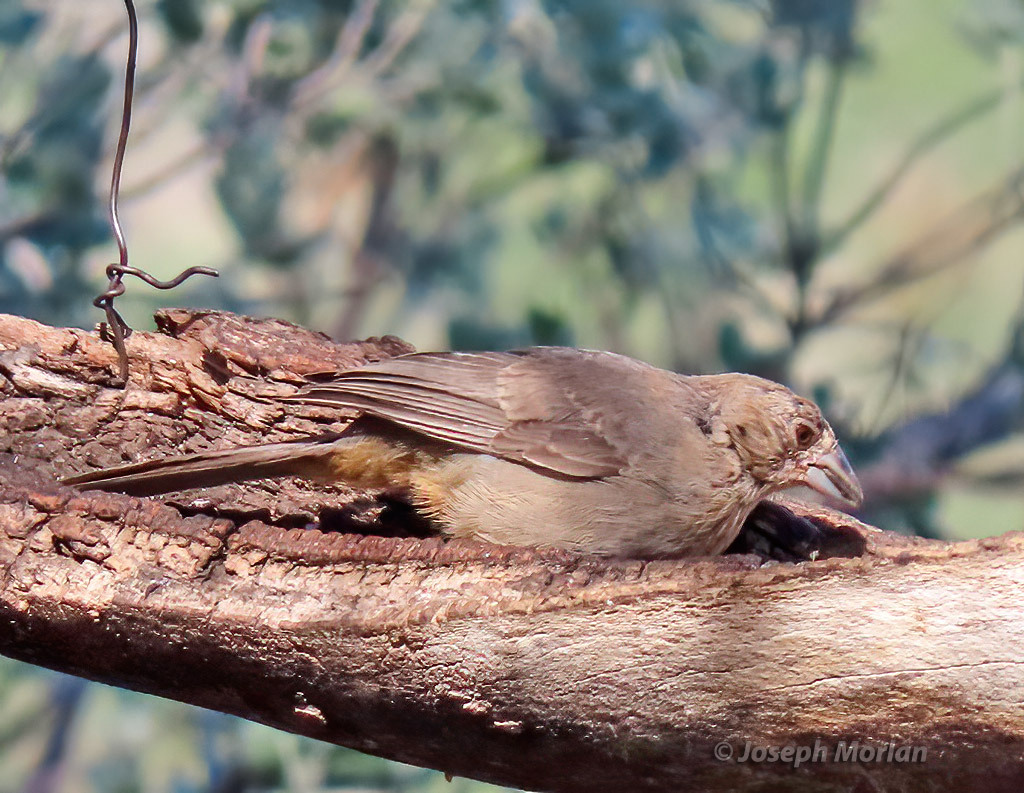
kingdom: Animalia
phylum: Chordata
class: Aves
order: Passeriformes
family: Passerellidae
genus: Melozone
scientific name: Melozone fusca
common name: Canyon towhee
